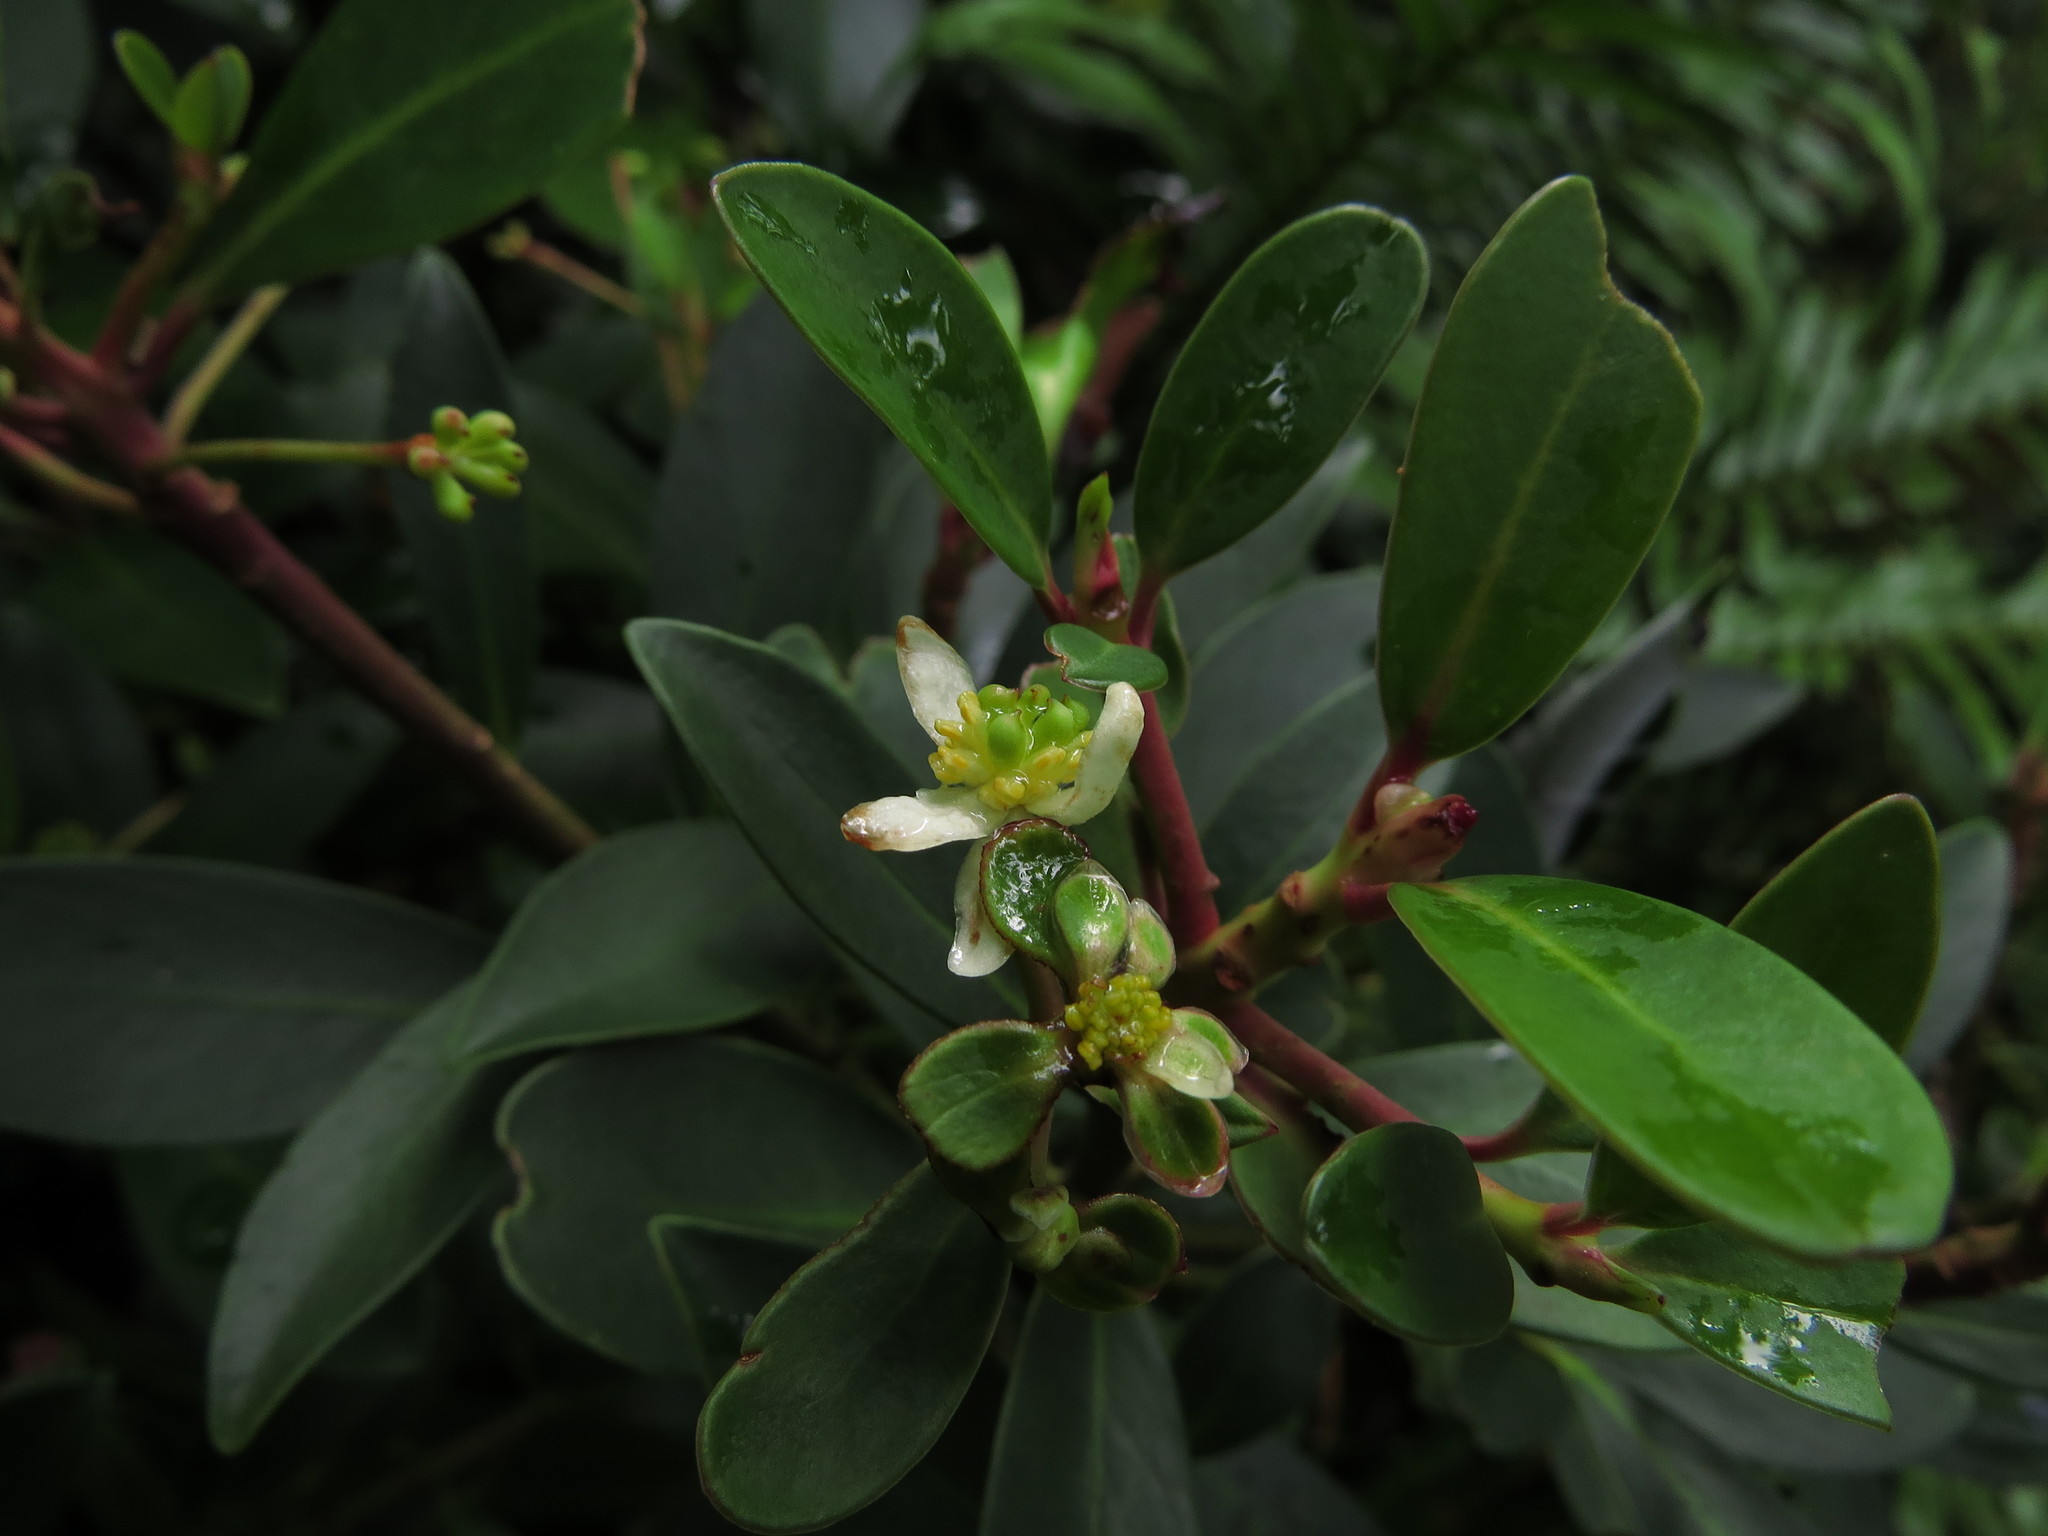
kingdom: Plantae
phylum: Tracheophyta
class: Magnoliopsida
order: Canellales
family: Winteraceae
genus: Drimys
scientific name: Drimys andina
